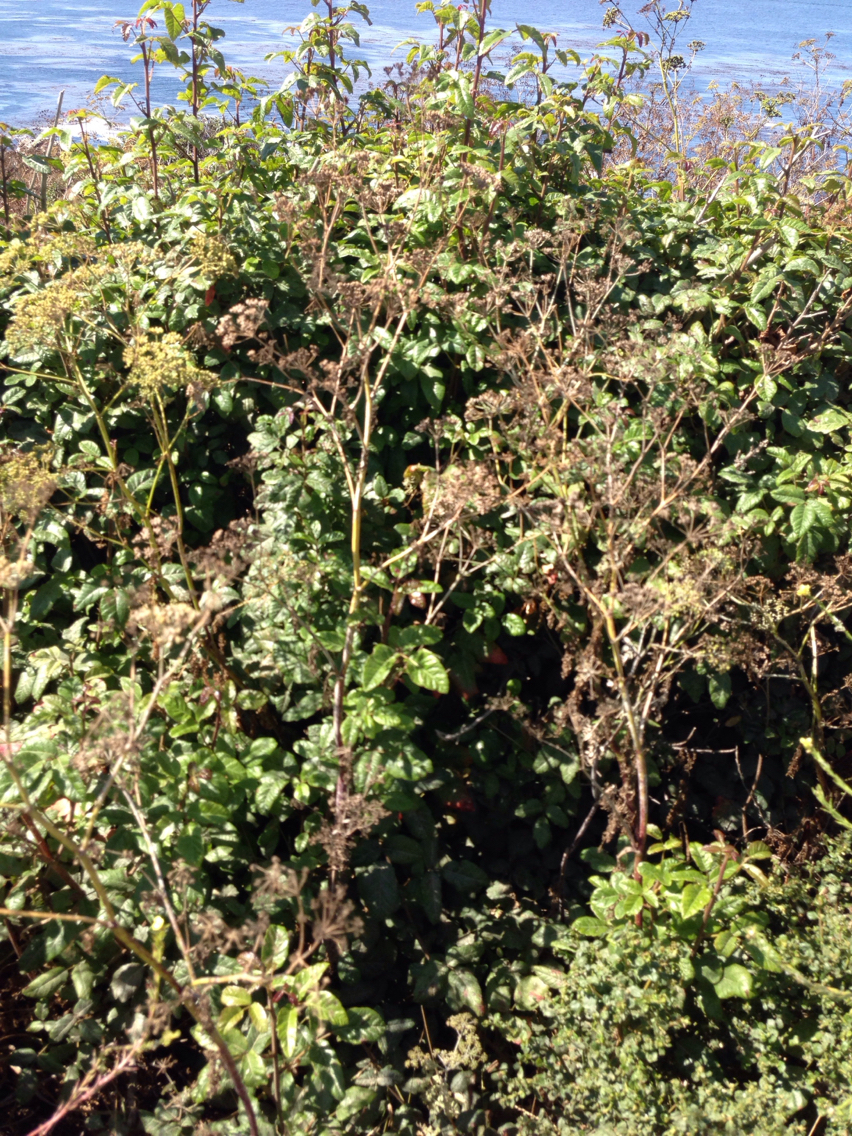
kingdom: Plantae
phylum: Tracheophyta
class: Magnoliopsida
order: Sapindales
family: Anacardiaceae
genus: Toxicodendron
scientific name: Toxicodendron diversilobum
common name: Pacific poison-oak
